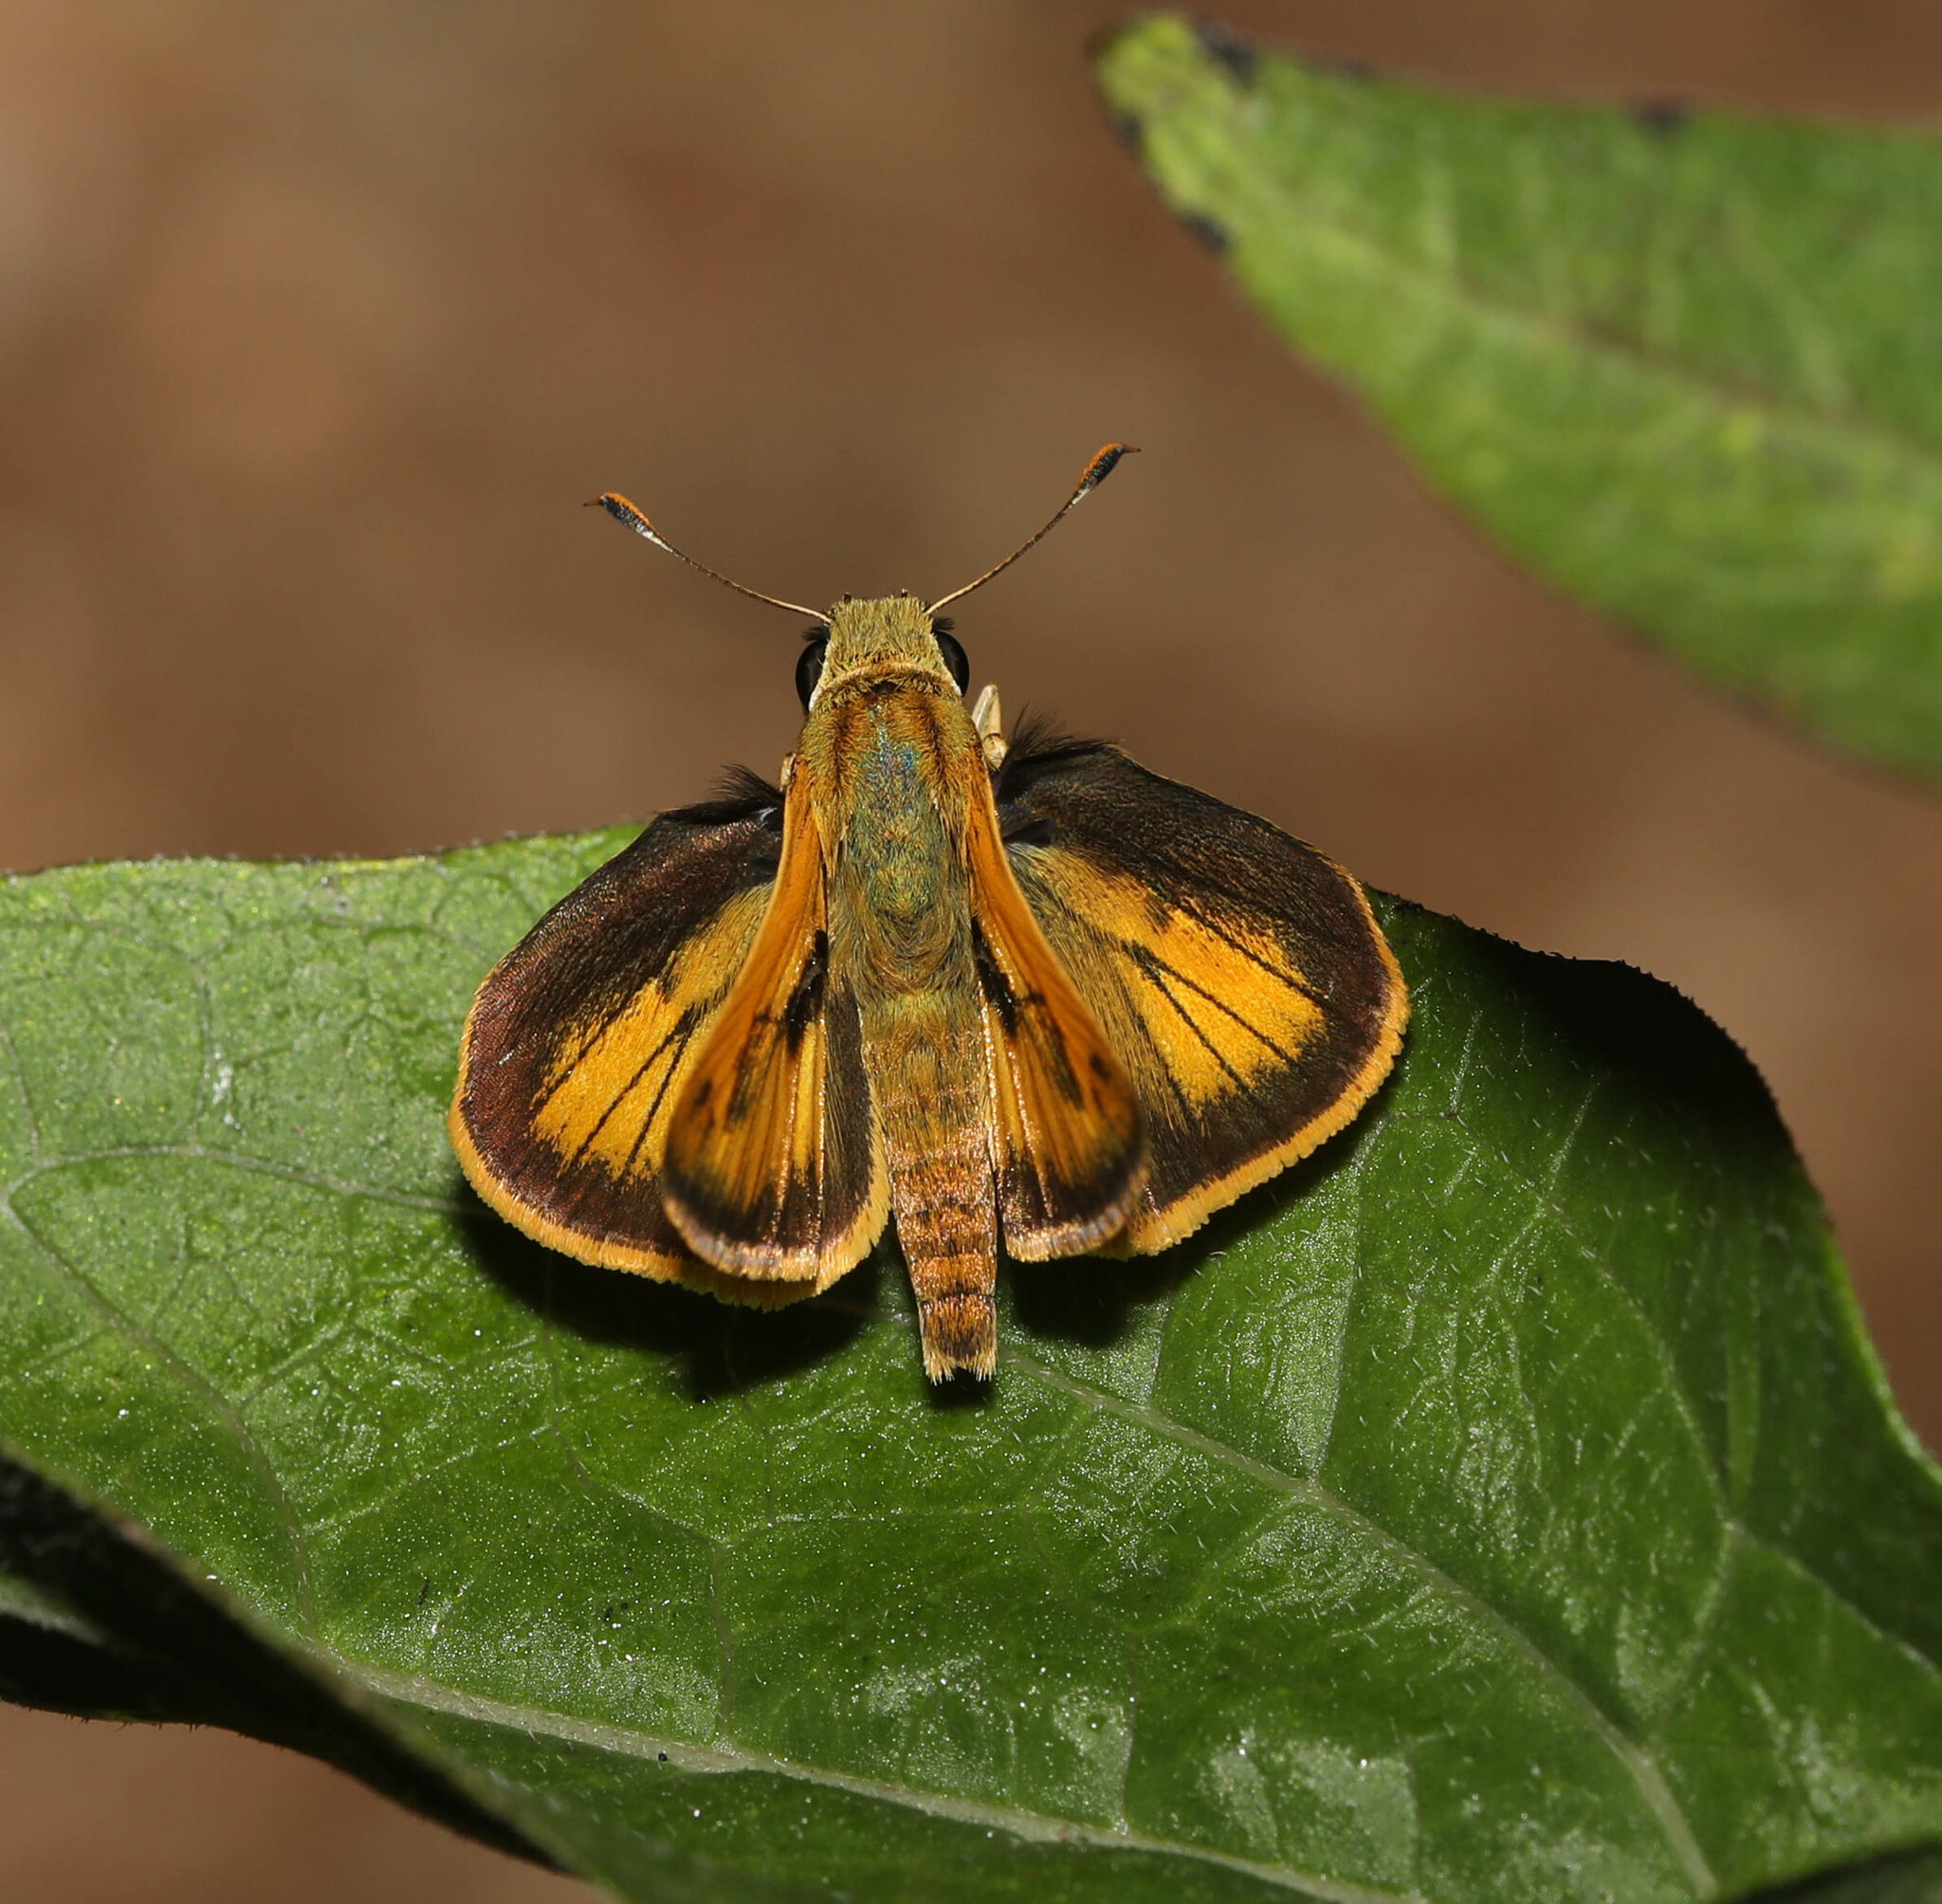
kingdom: Animalia
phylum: Arthropoda
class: Insecta
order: Lepidoptera
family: Hesperiidae
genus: Polites
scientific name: Polites vibex
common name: Whirlabout
